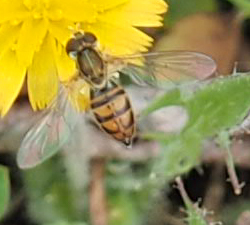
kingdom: Animalia
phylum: Arthropoda
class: Insecta
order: Diptera
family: Syrphidae
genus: Toxomerus
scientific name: Toxomerus marginatus
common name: Syrphid fly
